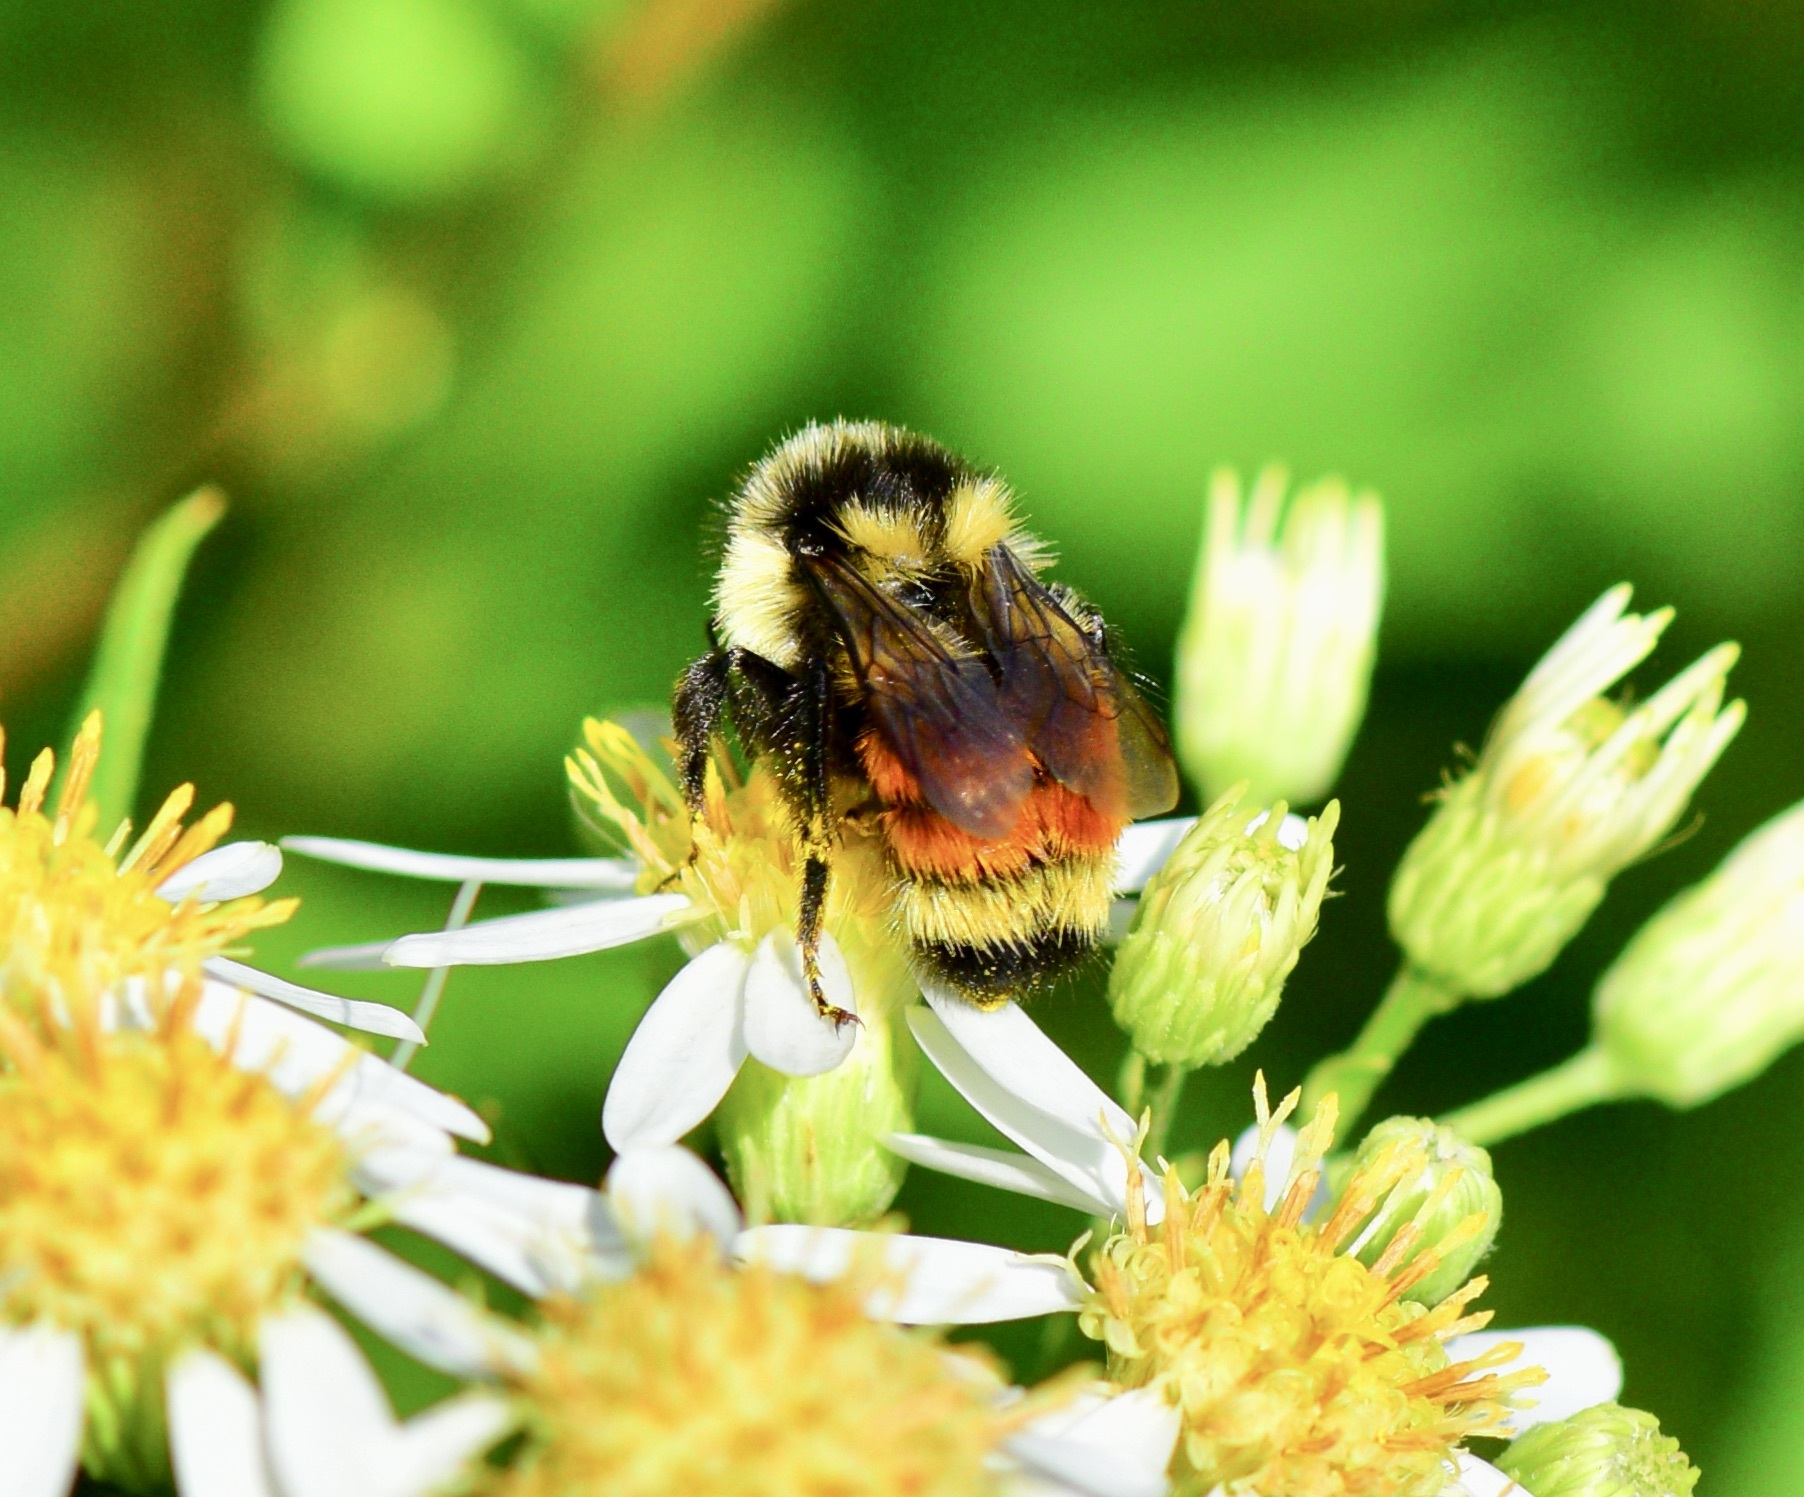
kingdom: Animalia
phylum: Arthropoda
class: Insecta
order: Hymenoptera
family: Apidae
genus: Bombus
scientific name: Bombus ternarius
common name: Tri-colored bumble bee
